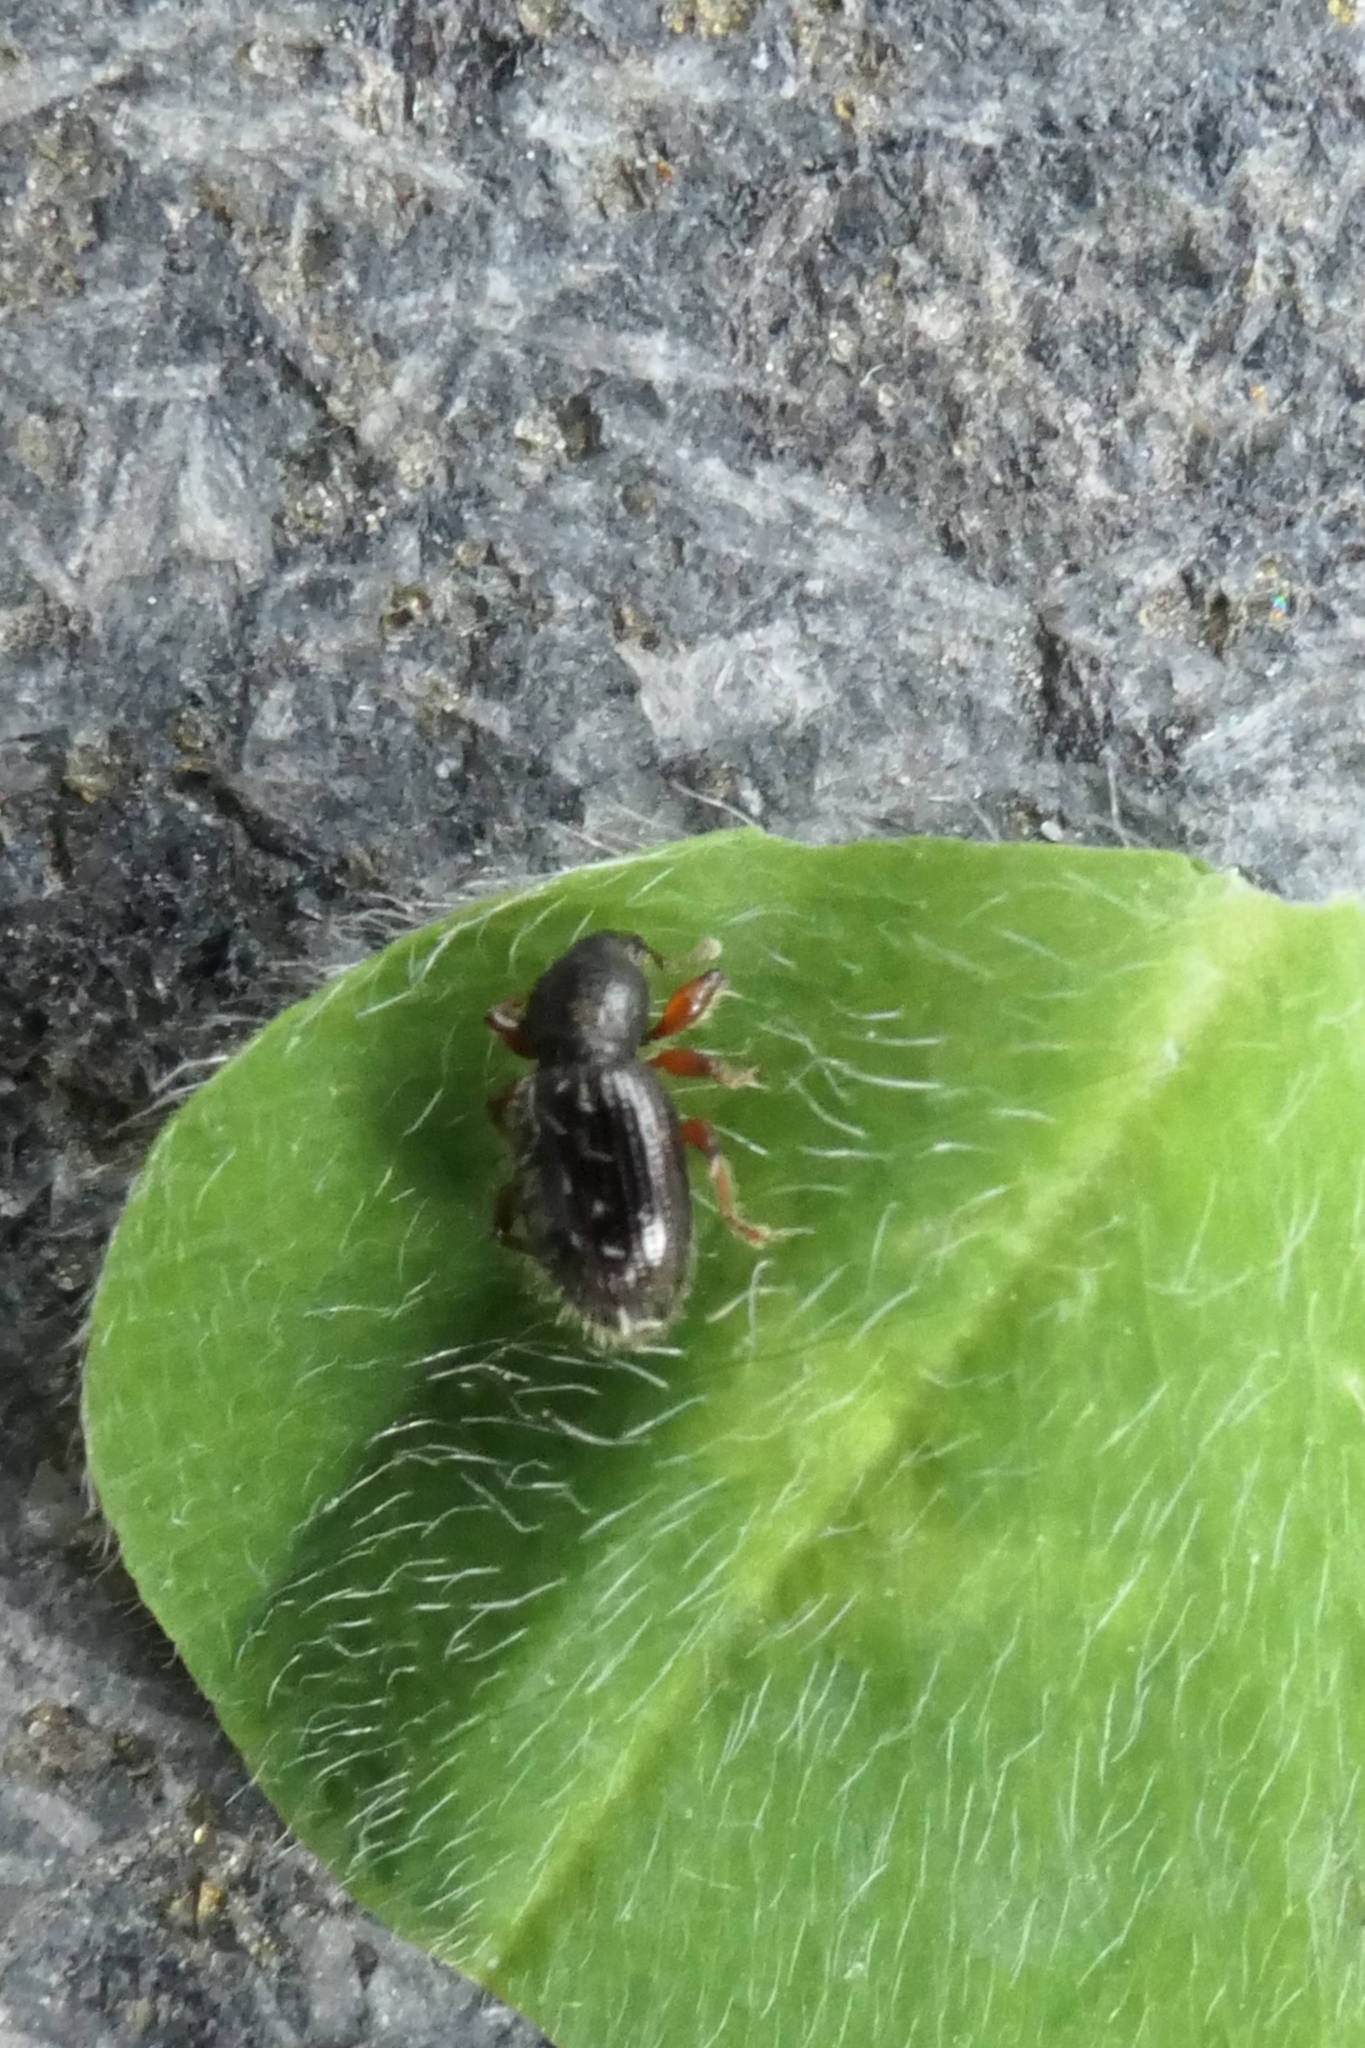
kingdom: Animalia
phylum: Arthropoda
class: Insecta
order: Coleoptera
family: Curculionidae
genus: Exomias
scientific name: Exomias pellucidus
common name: Hairy spider weevil
